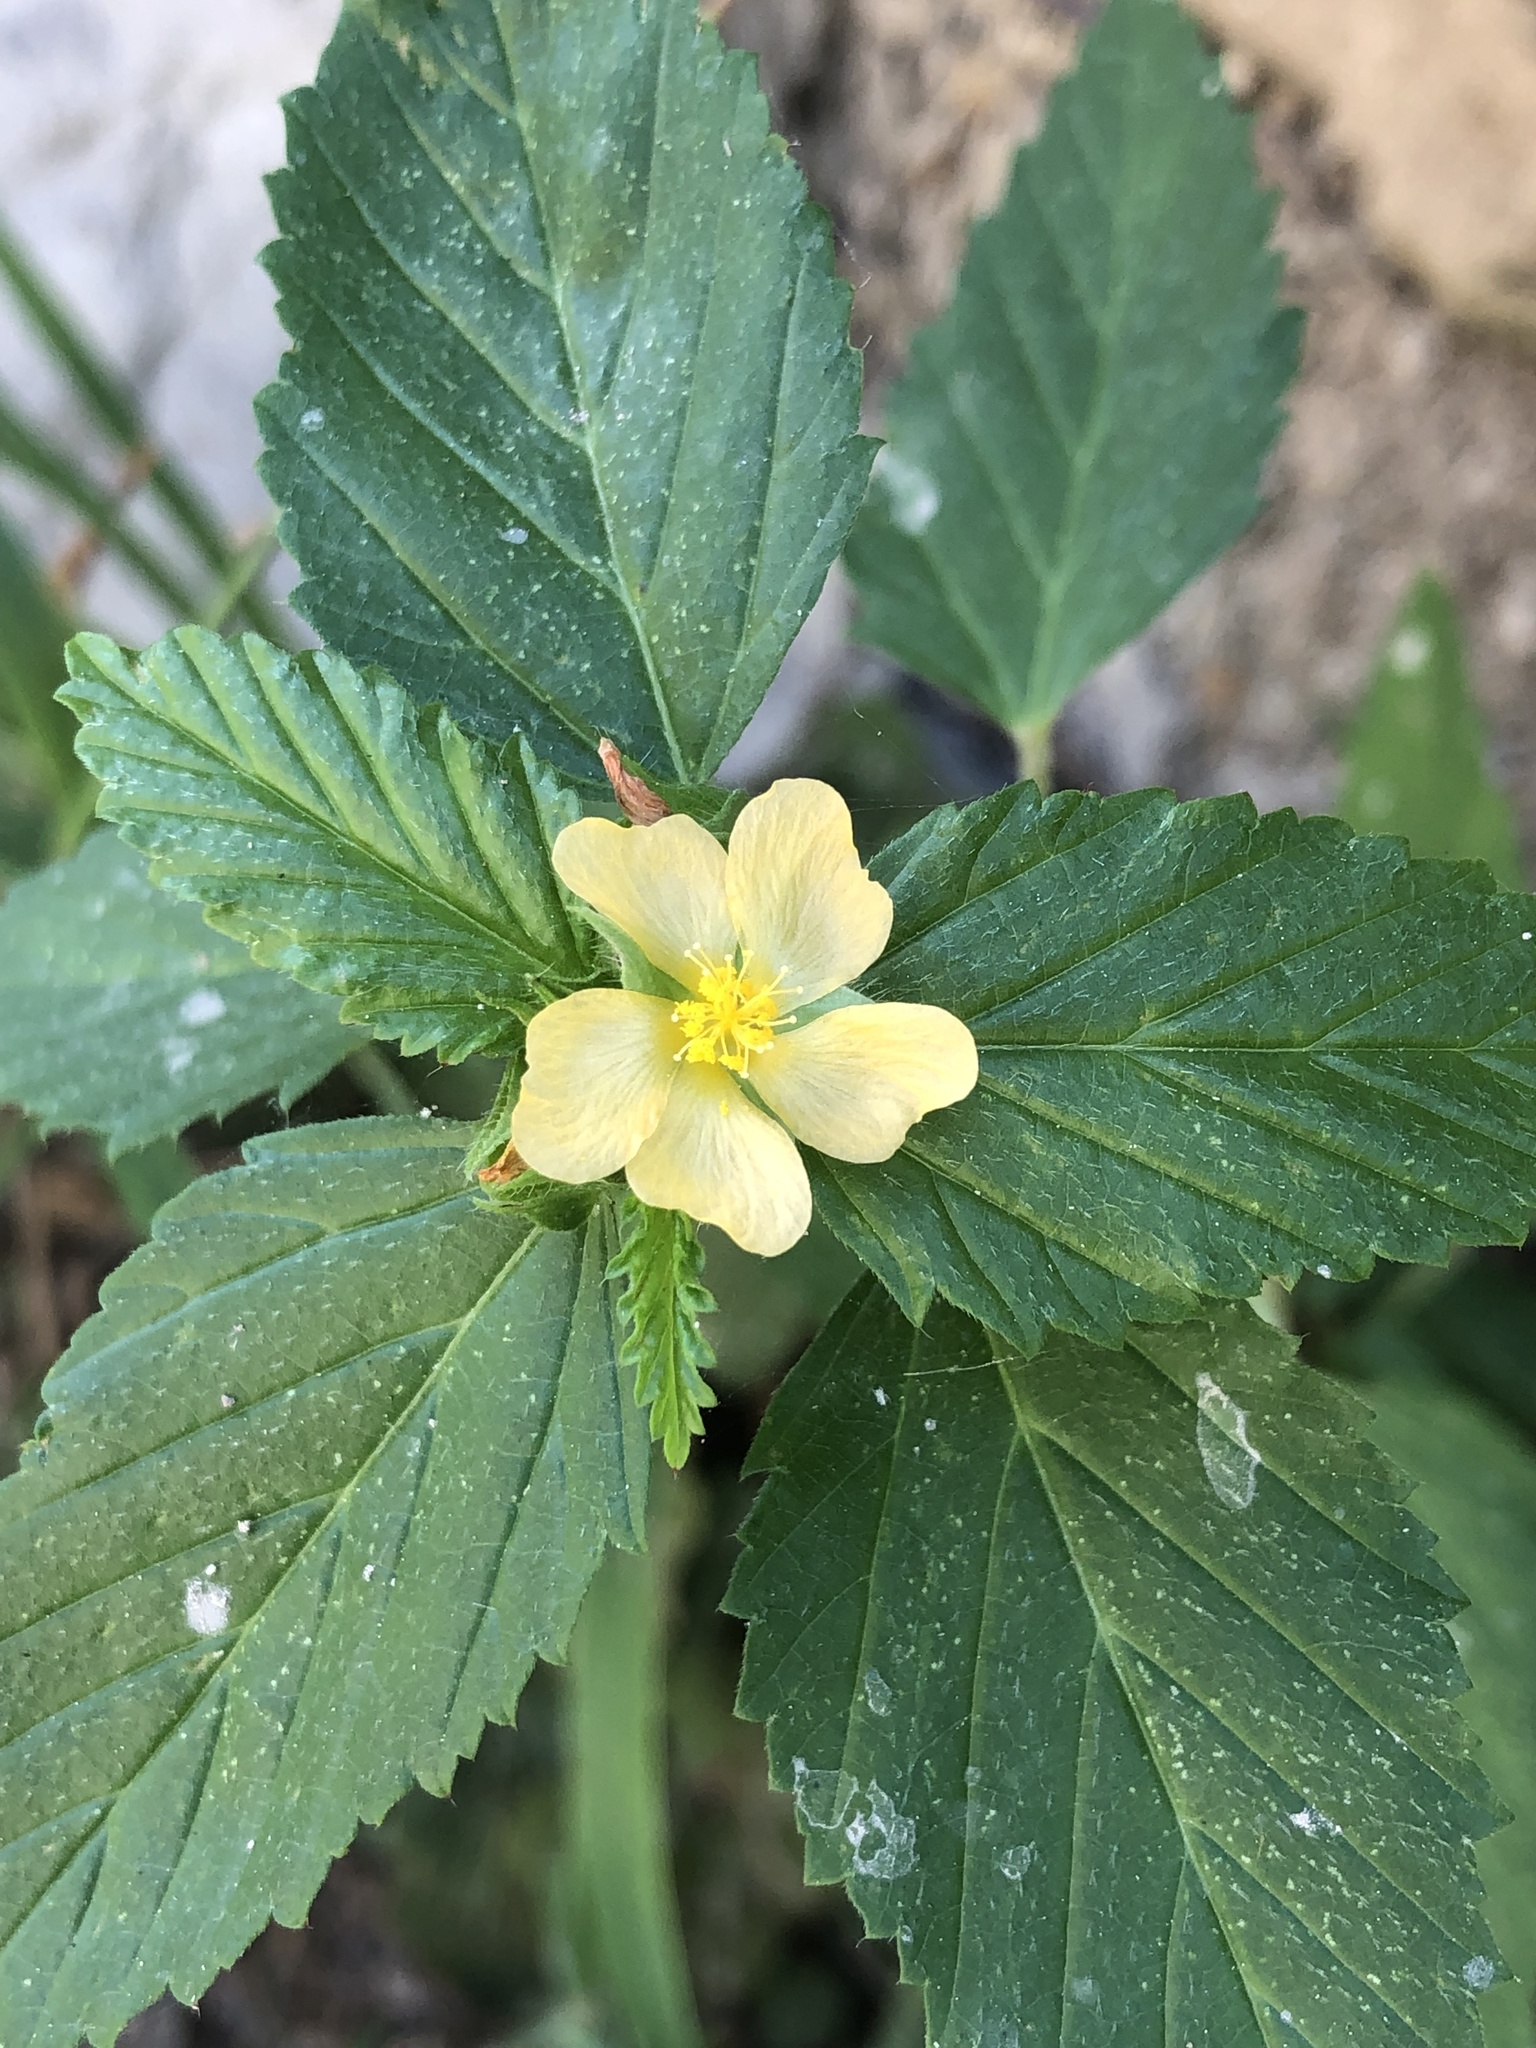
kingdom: Plantae
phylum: Tracheophyta
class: Magnoliopsida
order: Malvales
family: Malvaceae
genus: Malvastrum
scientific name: Malvastrum coromandelianum
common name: Threelobe false mallow
